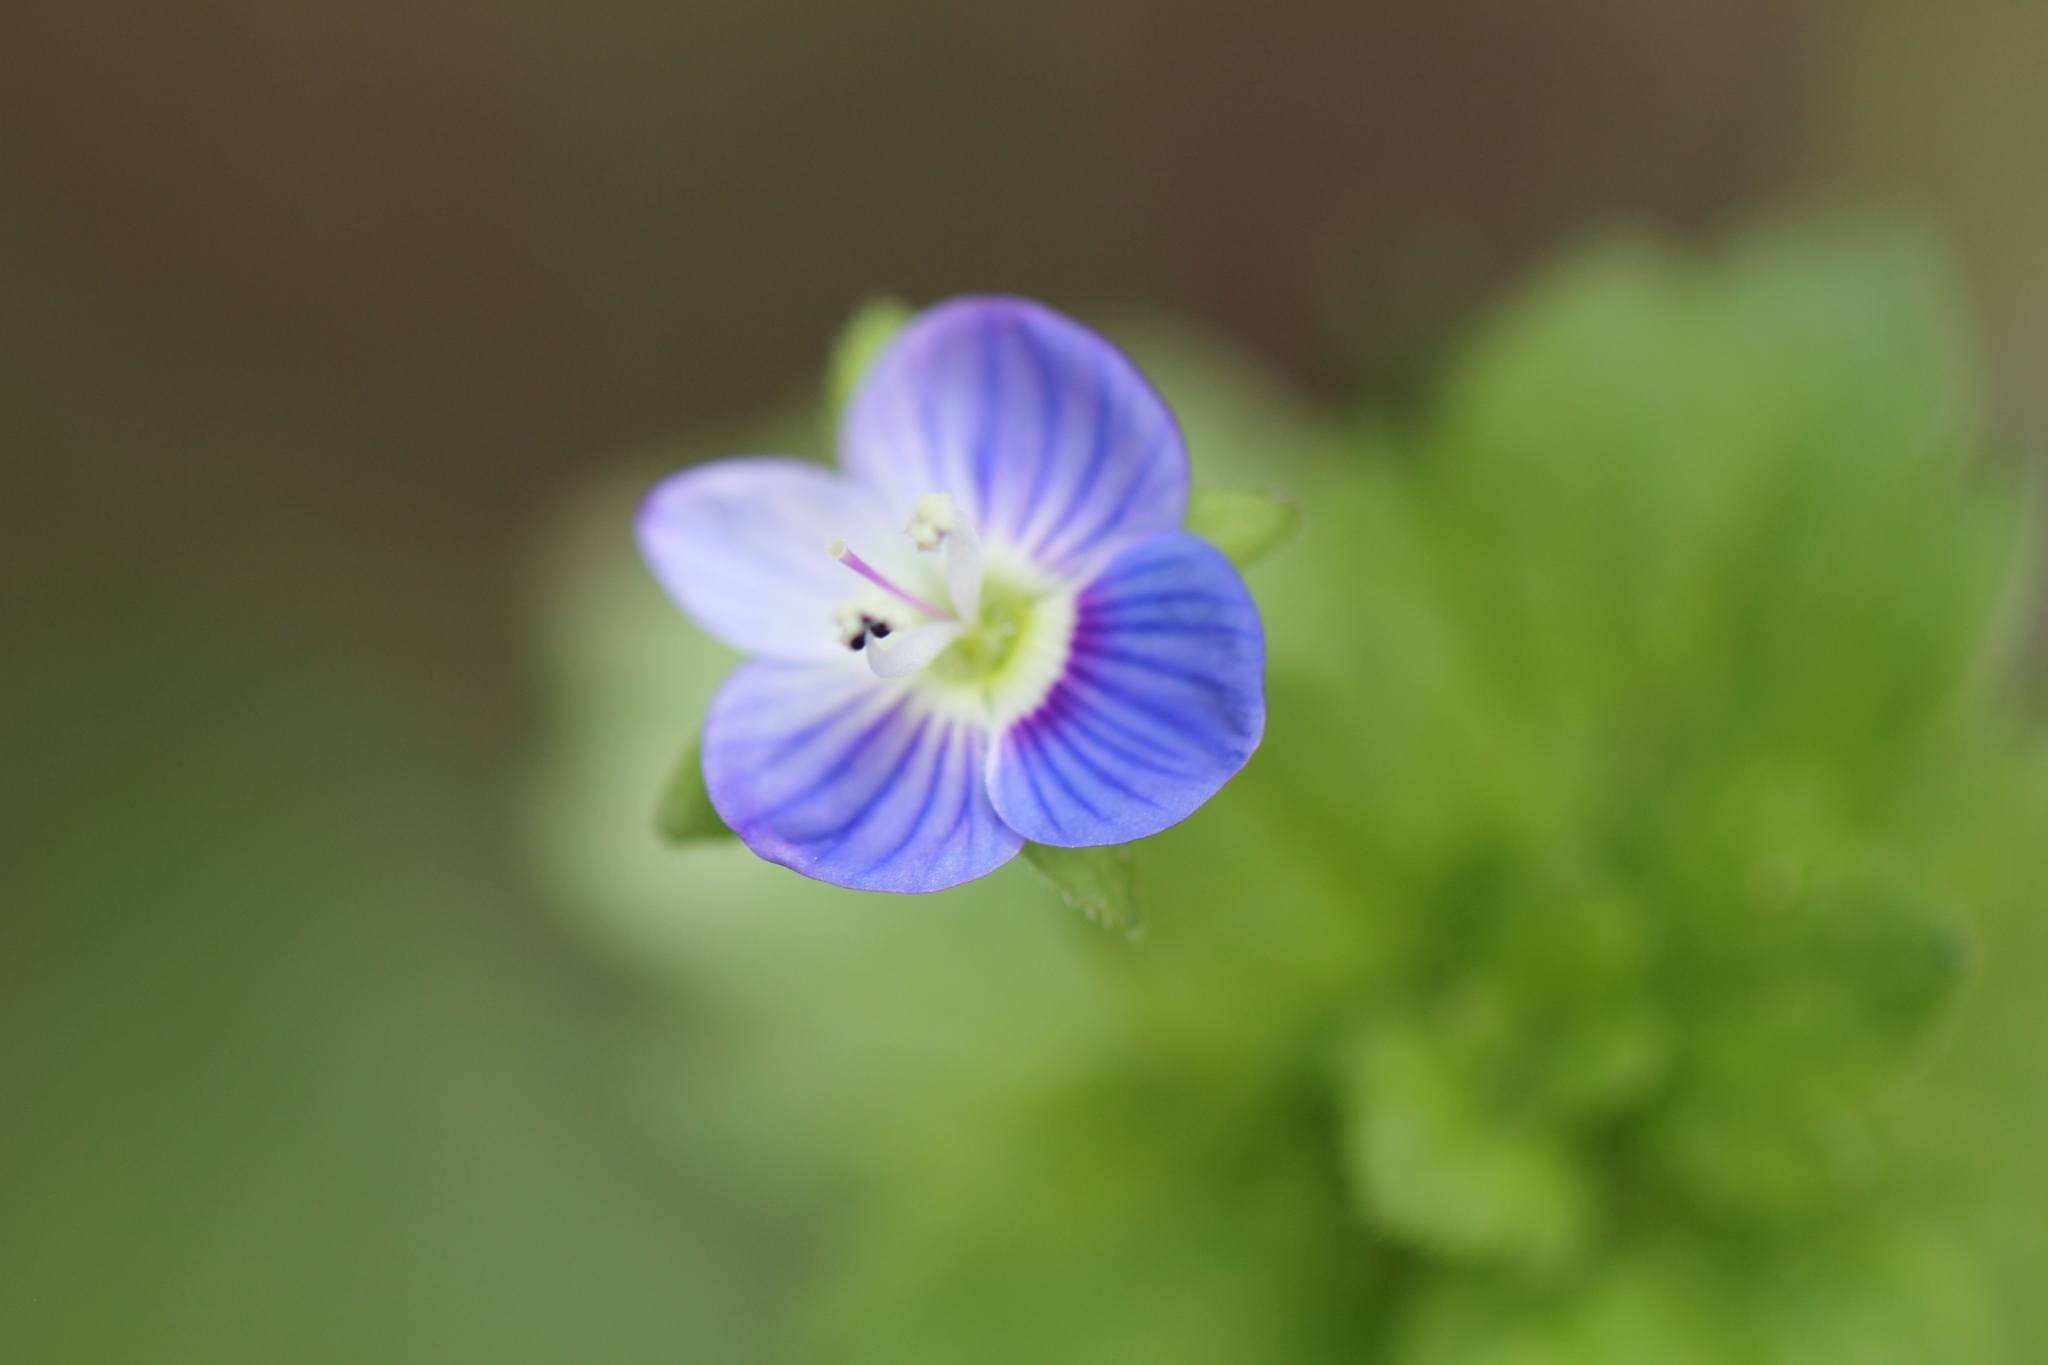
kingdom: Plantae
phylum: Tracheophyta
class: Magnoliopsida
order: Lamiales
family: Plantaginaceae
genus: Veronica
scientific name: Veronica persica
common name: Common field-speedwell
